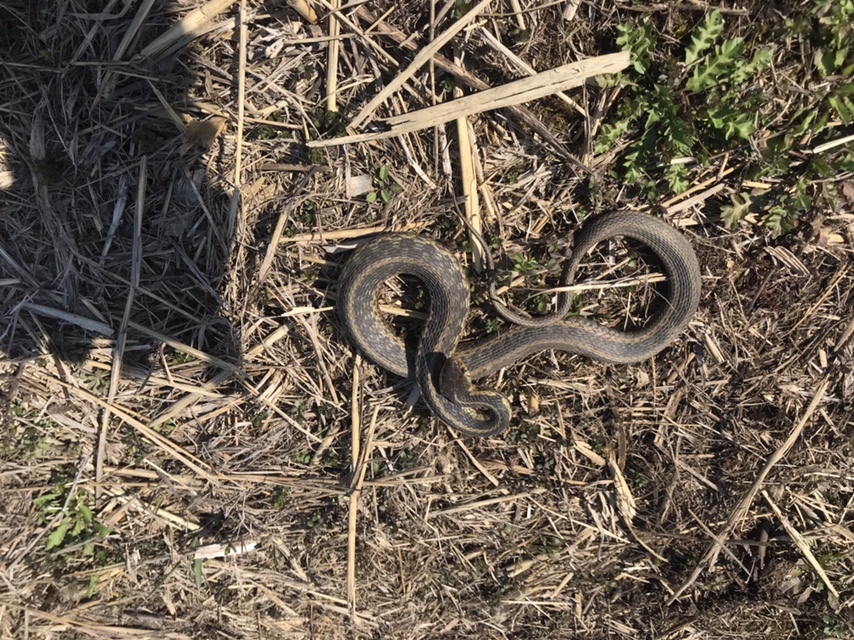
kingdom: Animalia
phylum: Chordata
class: Squamata
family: Colubridae
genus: Thamnophis
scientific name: Thamnophis sirtalis
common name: Common garter snake
